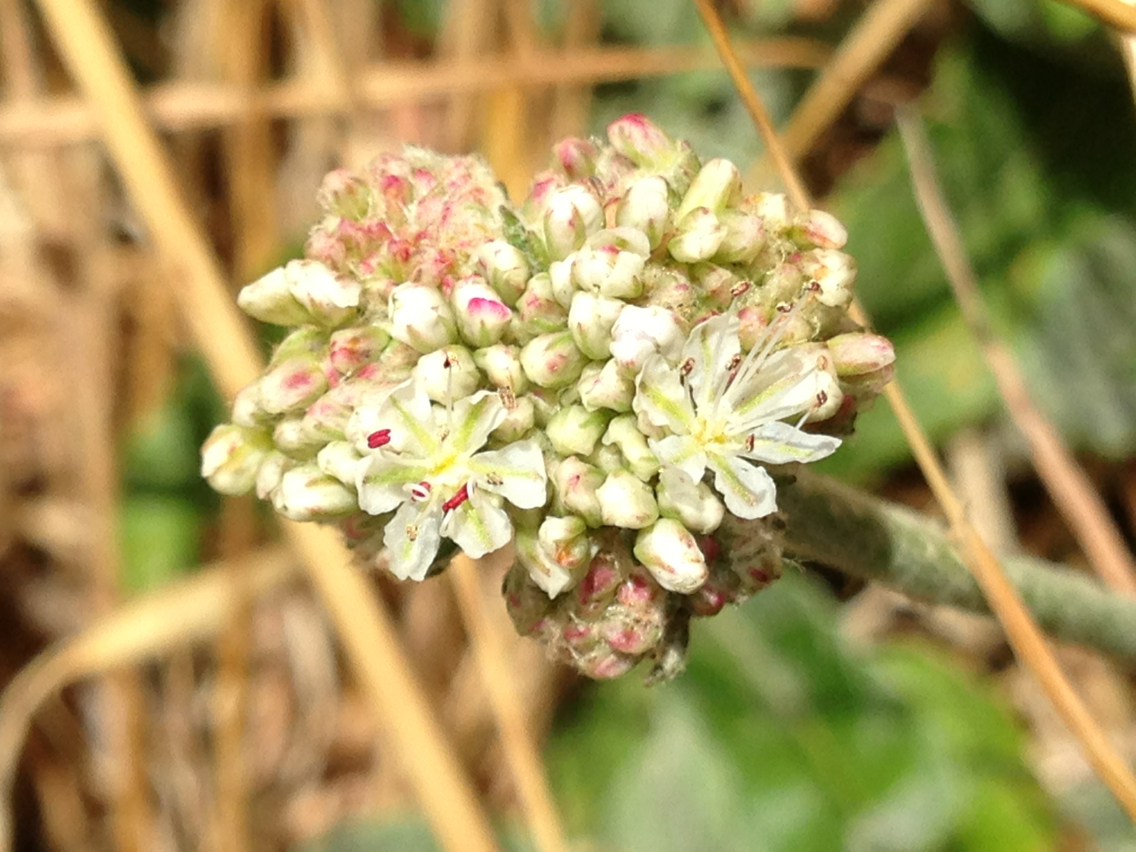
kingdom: Plantae
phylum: Tracheophyta
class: Magnoliopsida
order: Caryophyllales
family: Polygonaceae
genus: Eriogonum
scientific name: Eriogonum latifolium
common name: Seaside wild buckwheat
